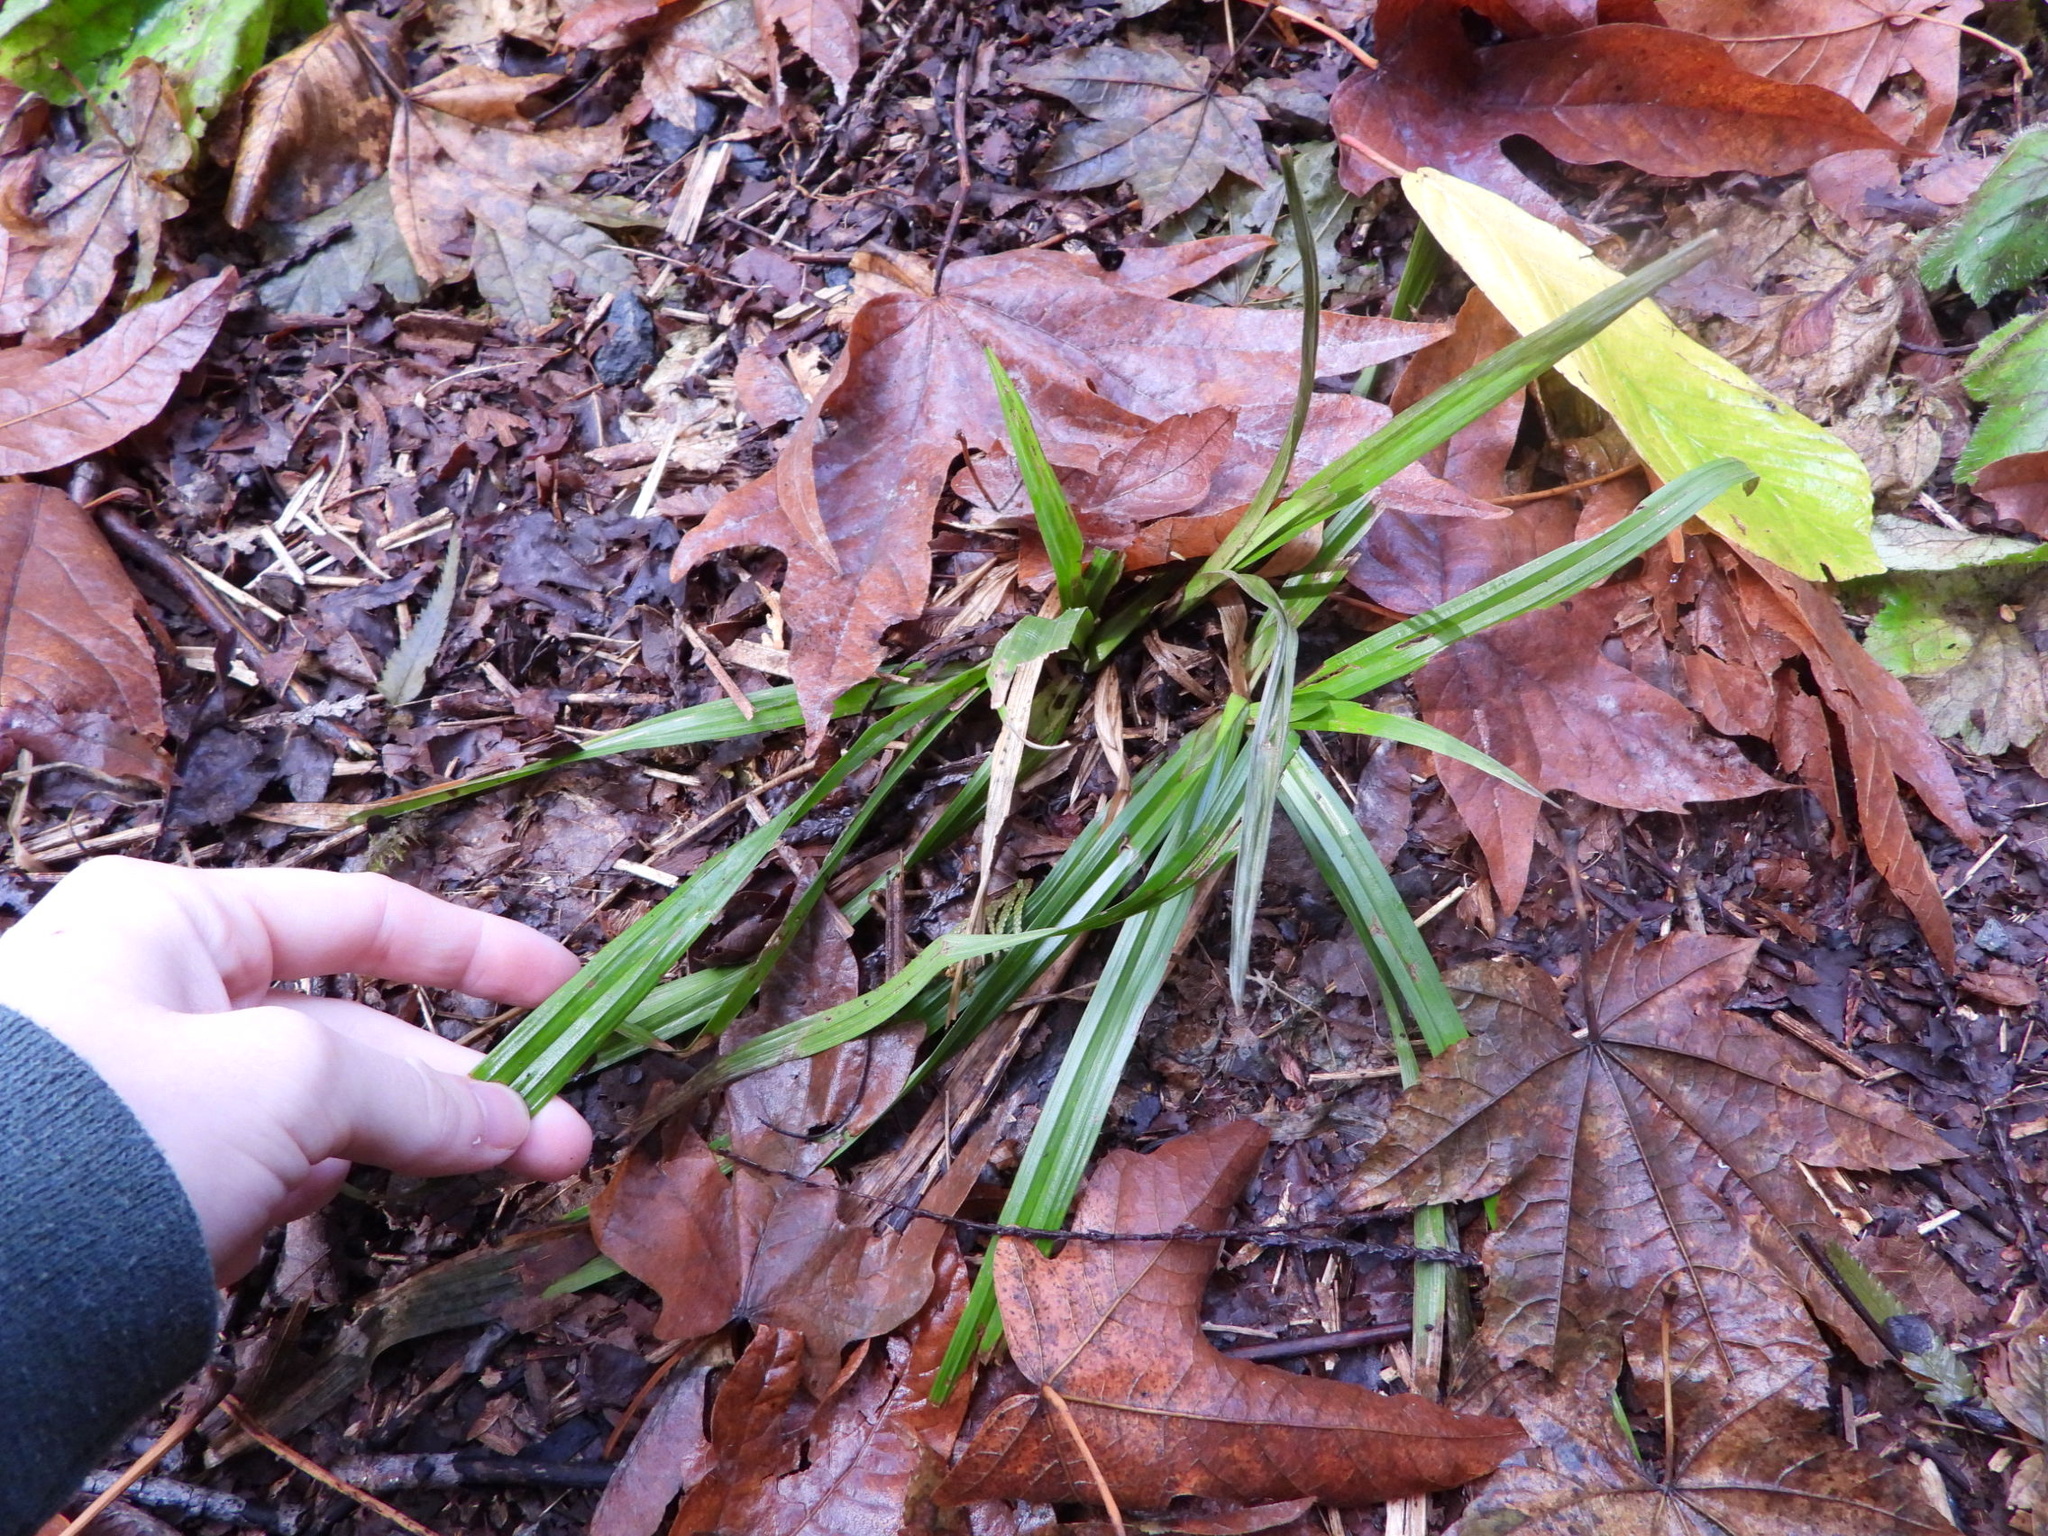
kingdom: Plantae
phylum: Tracheophyta
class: Liliopsida
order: Poales
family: Cyperaceae
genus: Carex
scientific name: Carex hendersonii
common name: Henderson's sedge
